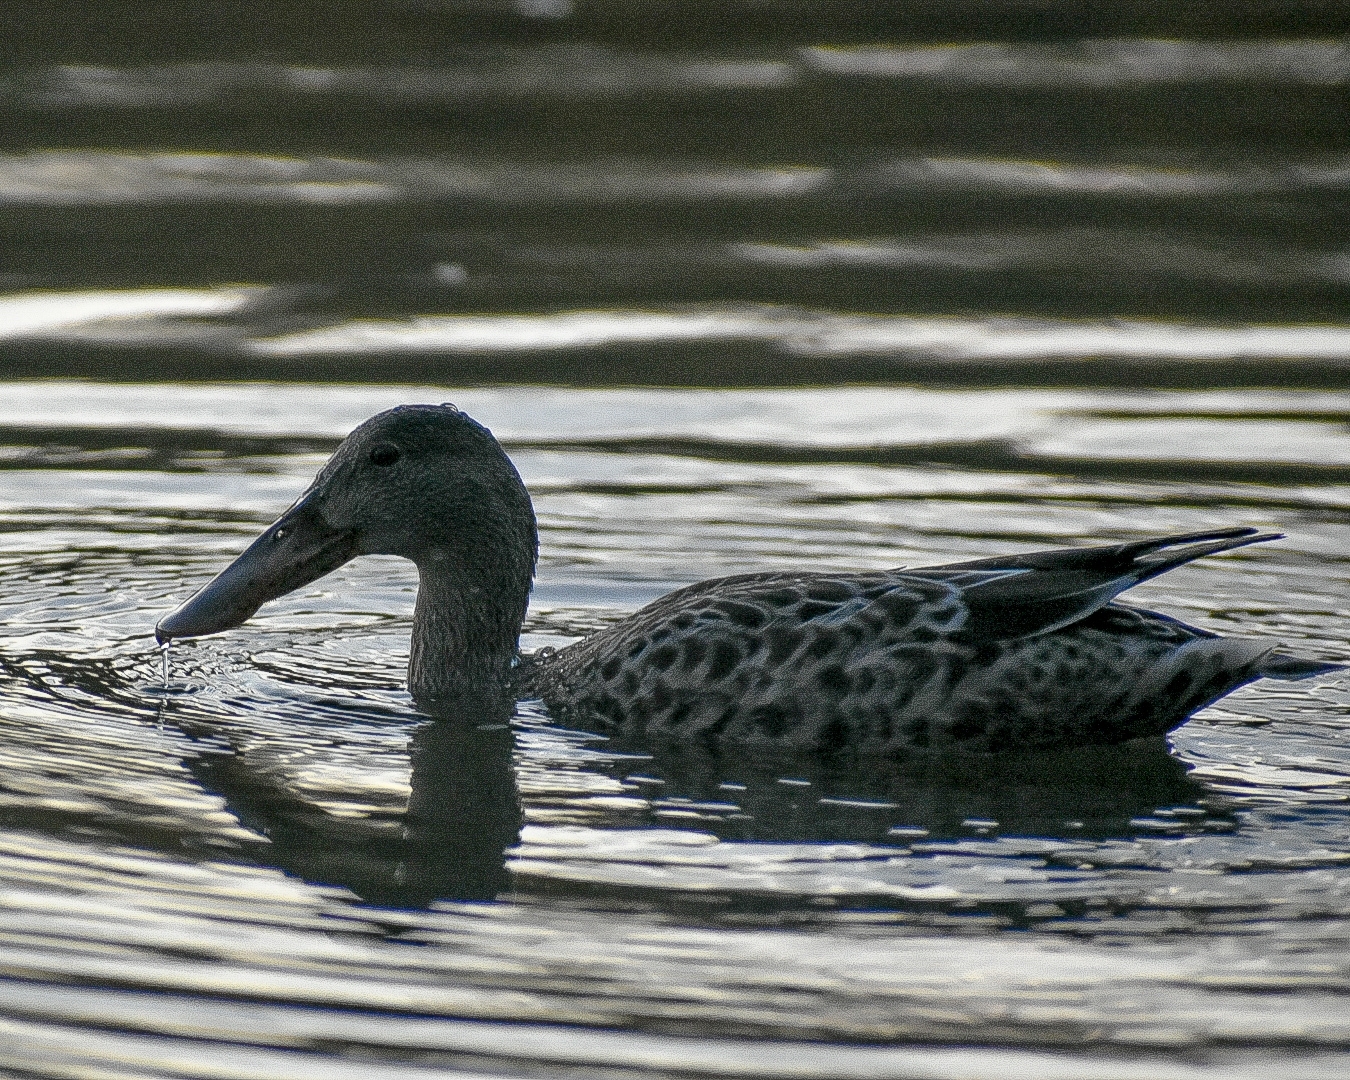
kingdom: Animalia
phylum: Chordata
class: Aves
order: Anseriformes
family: Anatidae
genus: Spatula
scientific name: Spatula clypeata
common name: Northern shoveler
